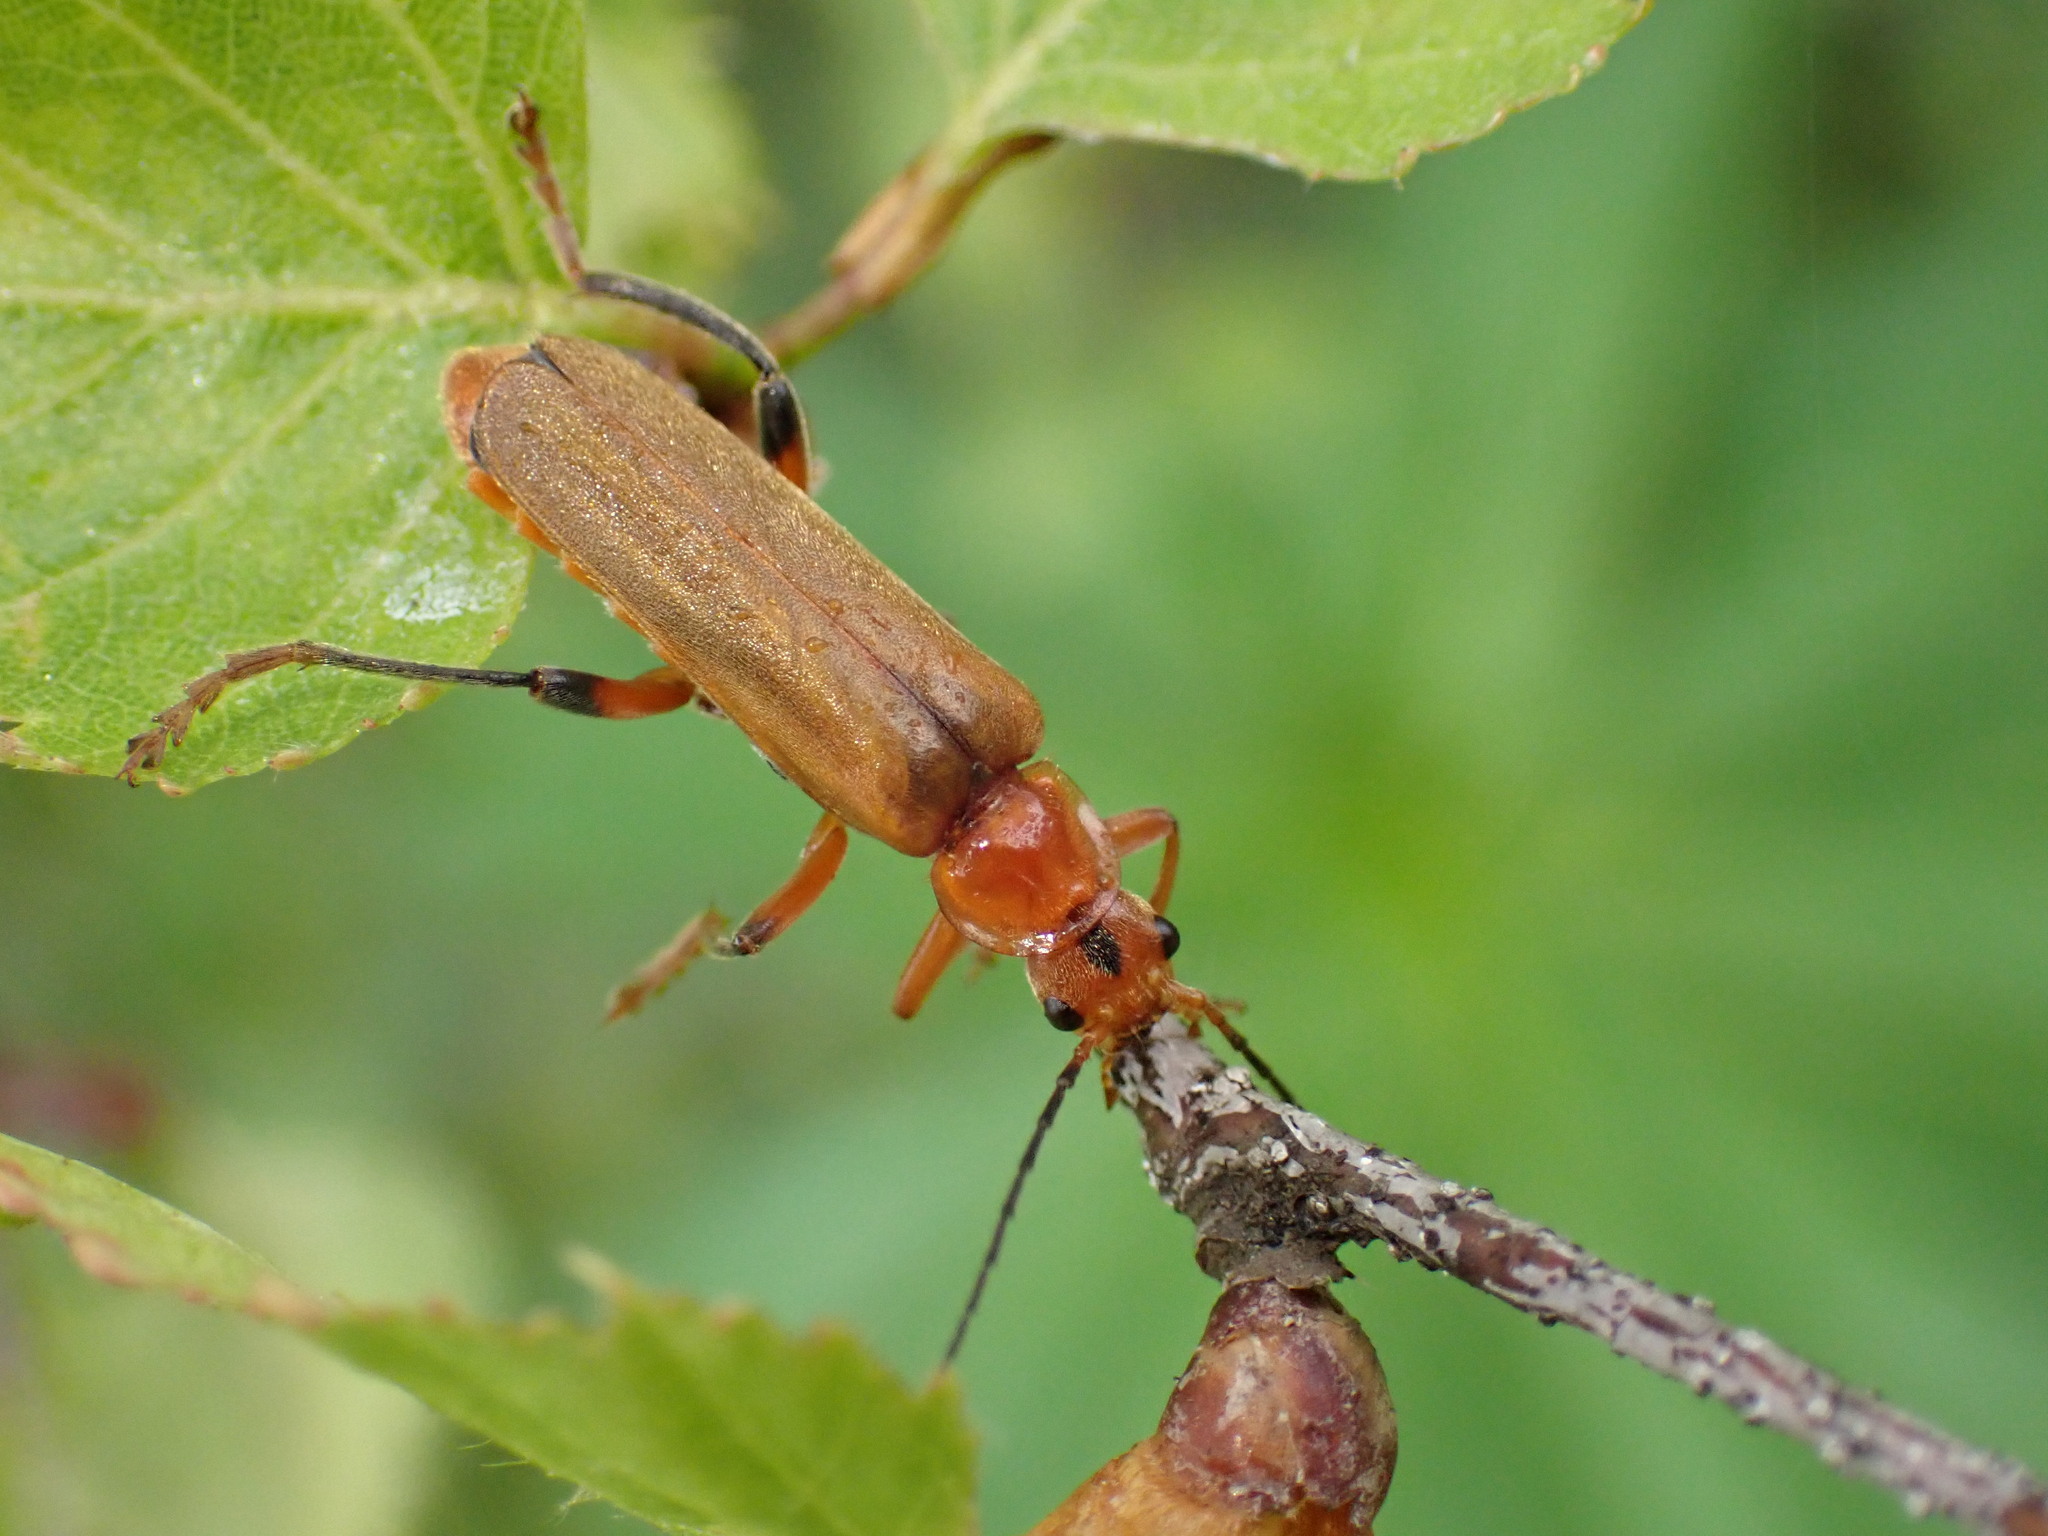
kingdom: Animalia
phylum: Arthropoda
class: Insecta
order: Coleoptera
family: Cantharidae
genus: Cantharis
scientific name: Cantharis livida
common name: Livid soldier beetle
